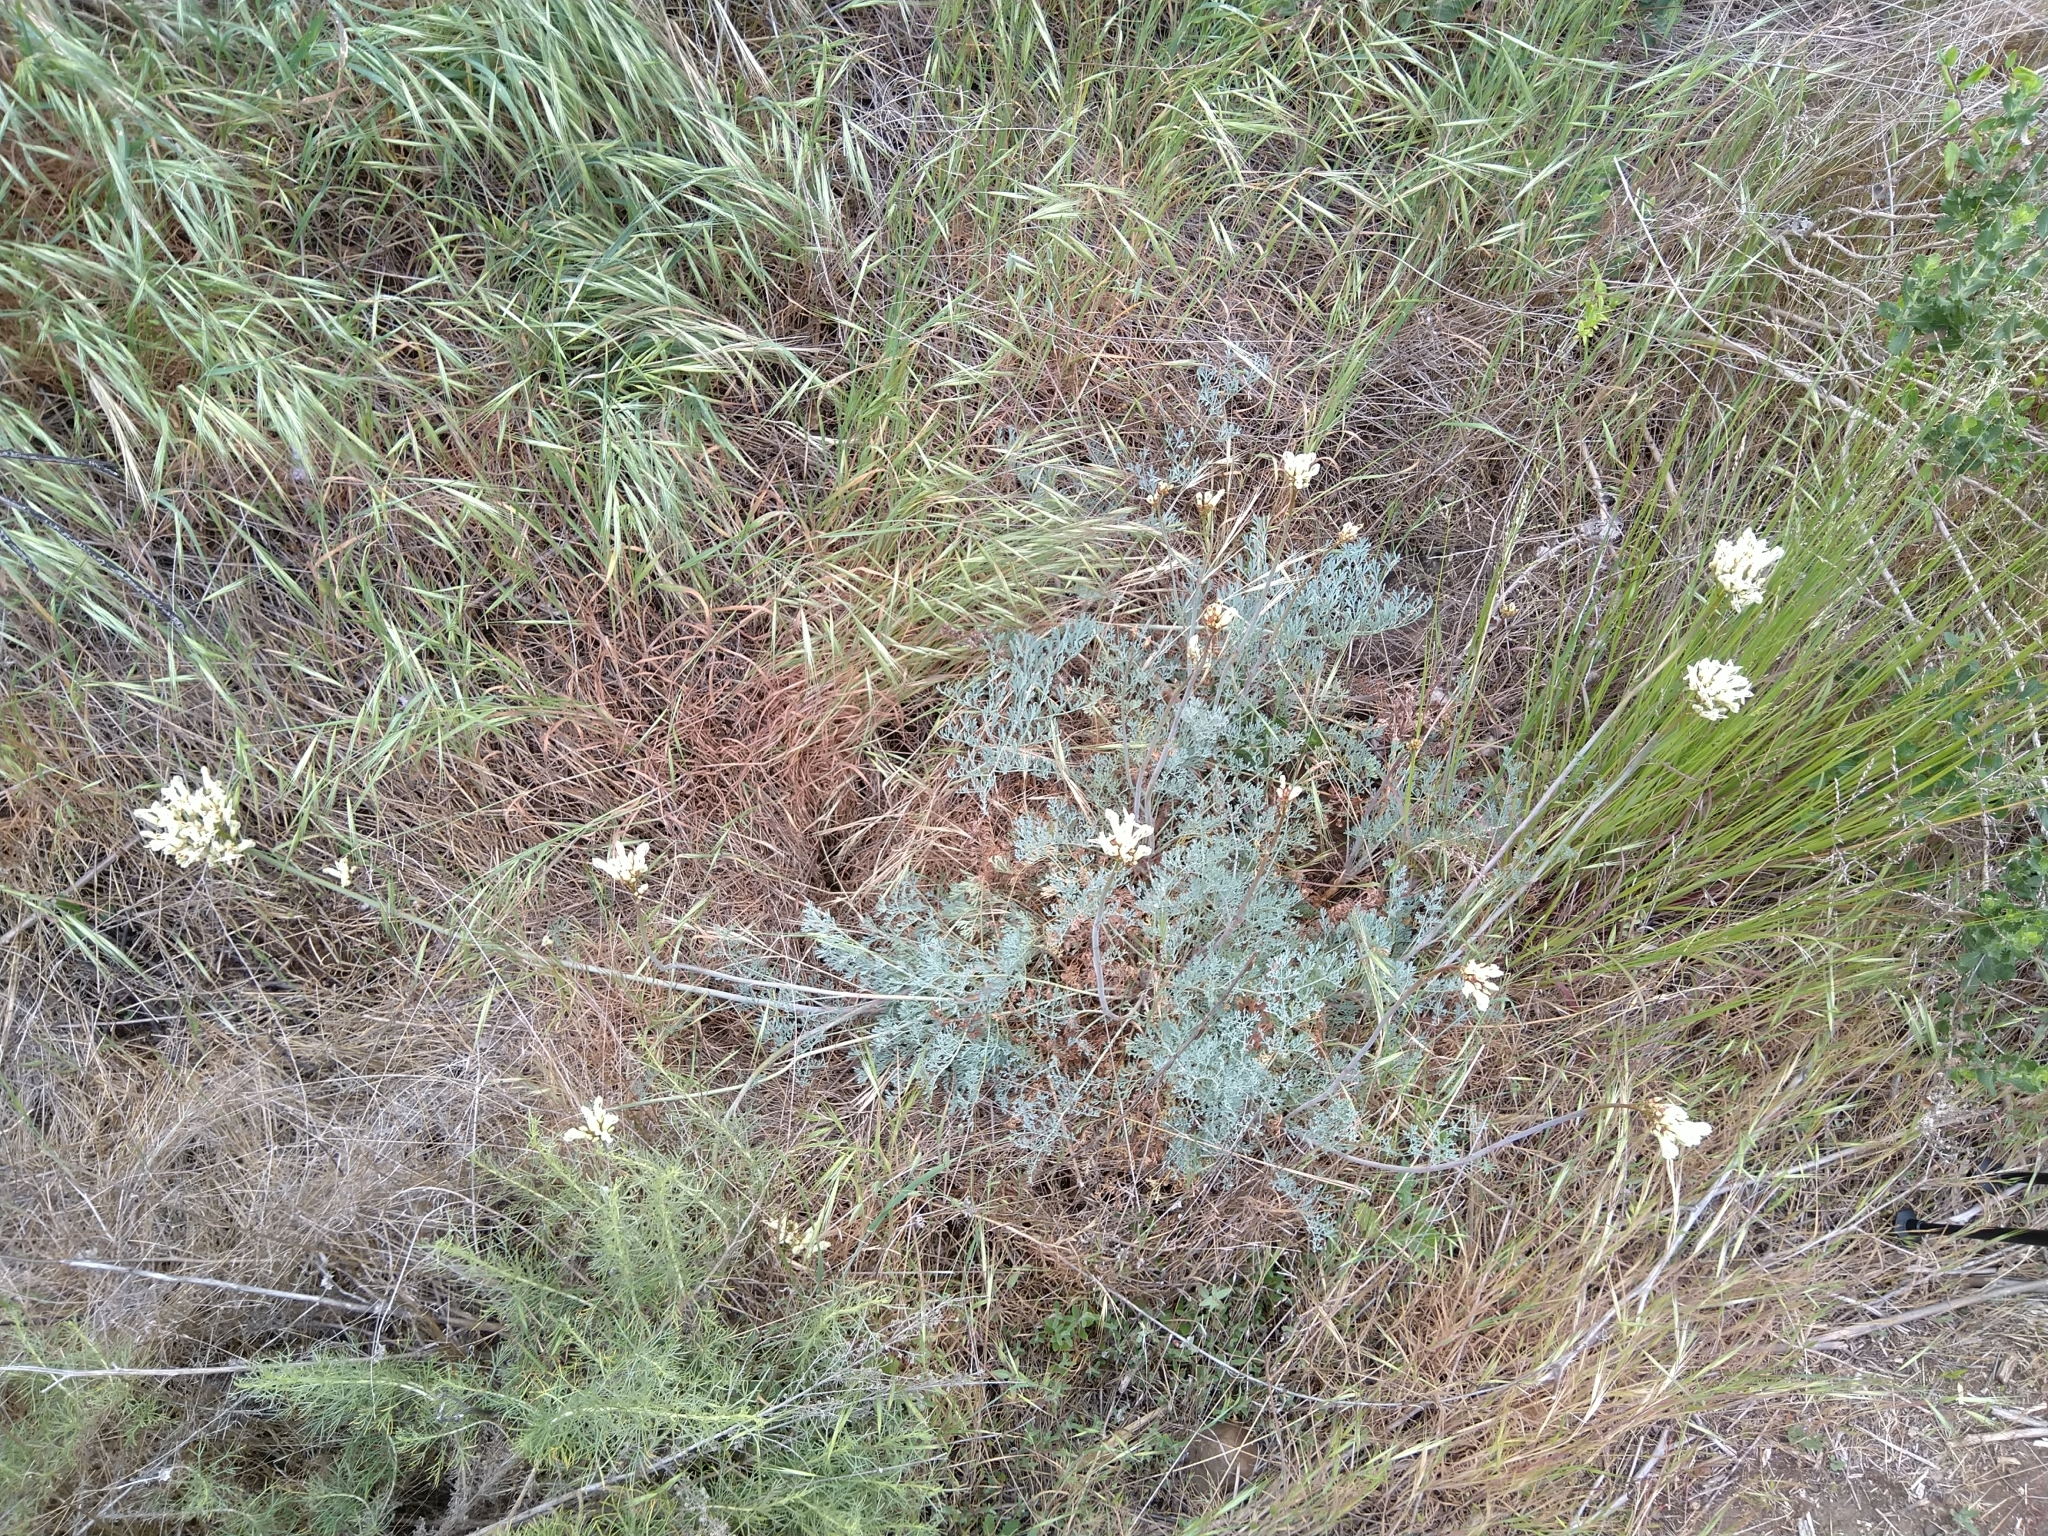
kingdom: Plantae
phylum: Tracheophyta
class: Magnoliopsida
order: Ranunculales
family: Papaveraceae
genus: Ehrendorferia
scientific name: Ehrendorferia ochroleuca
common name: White eardrops
